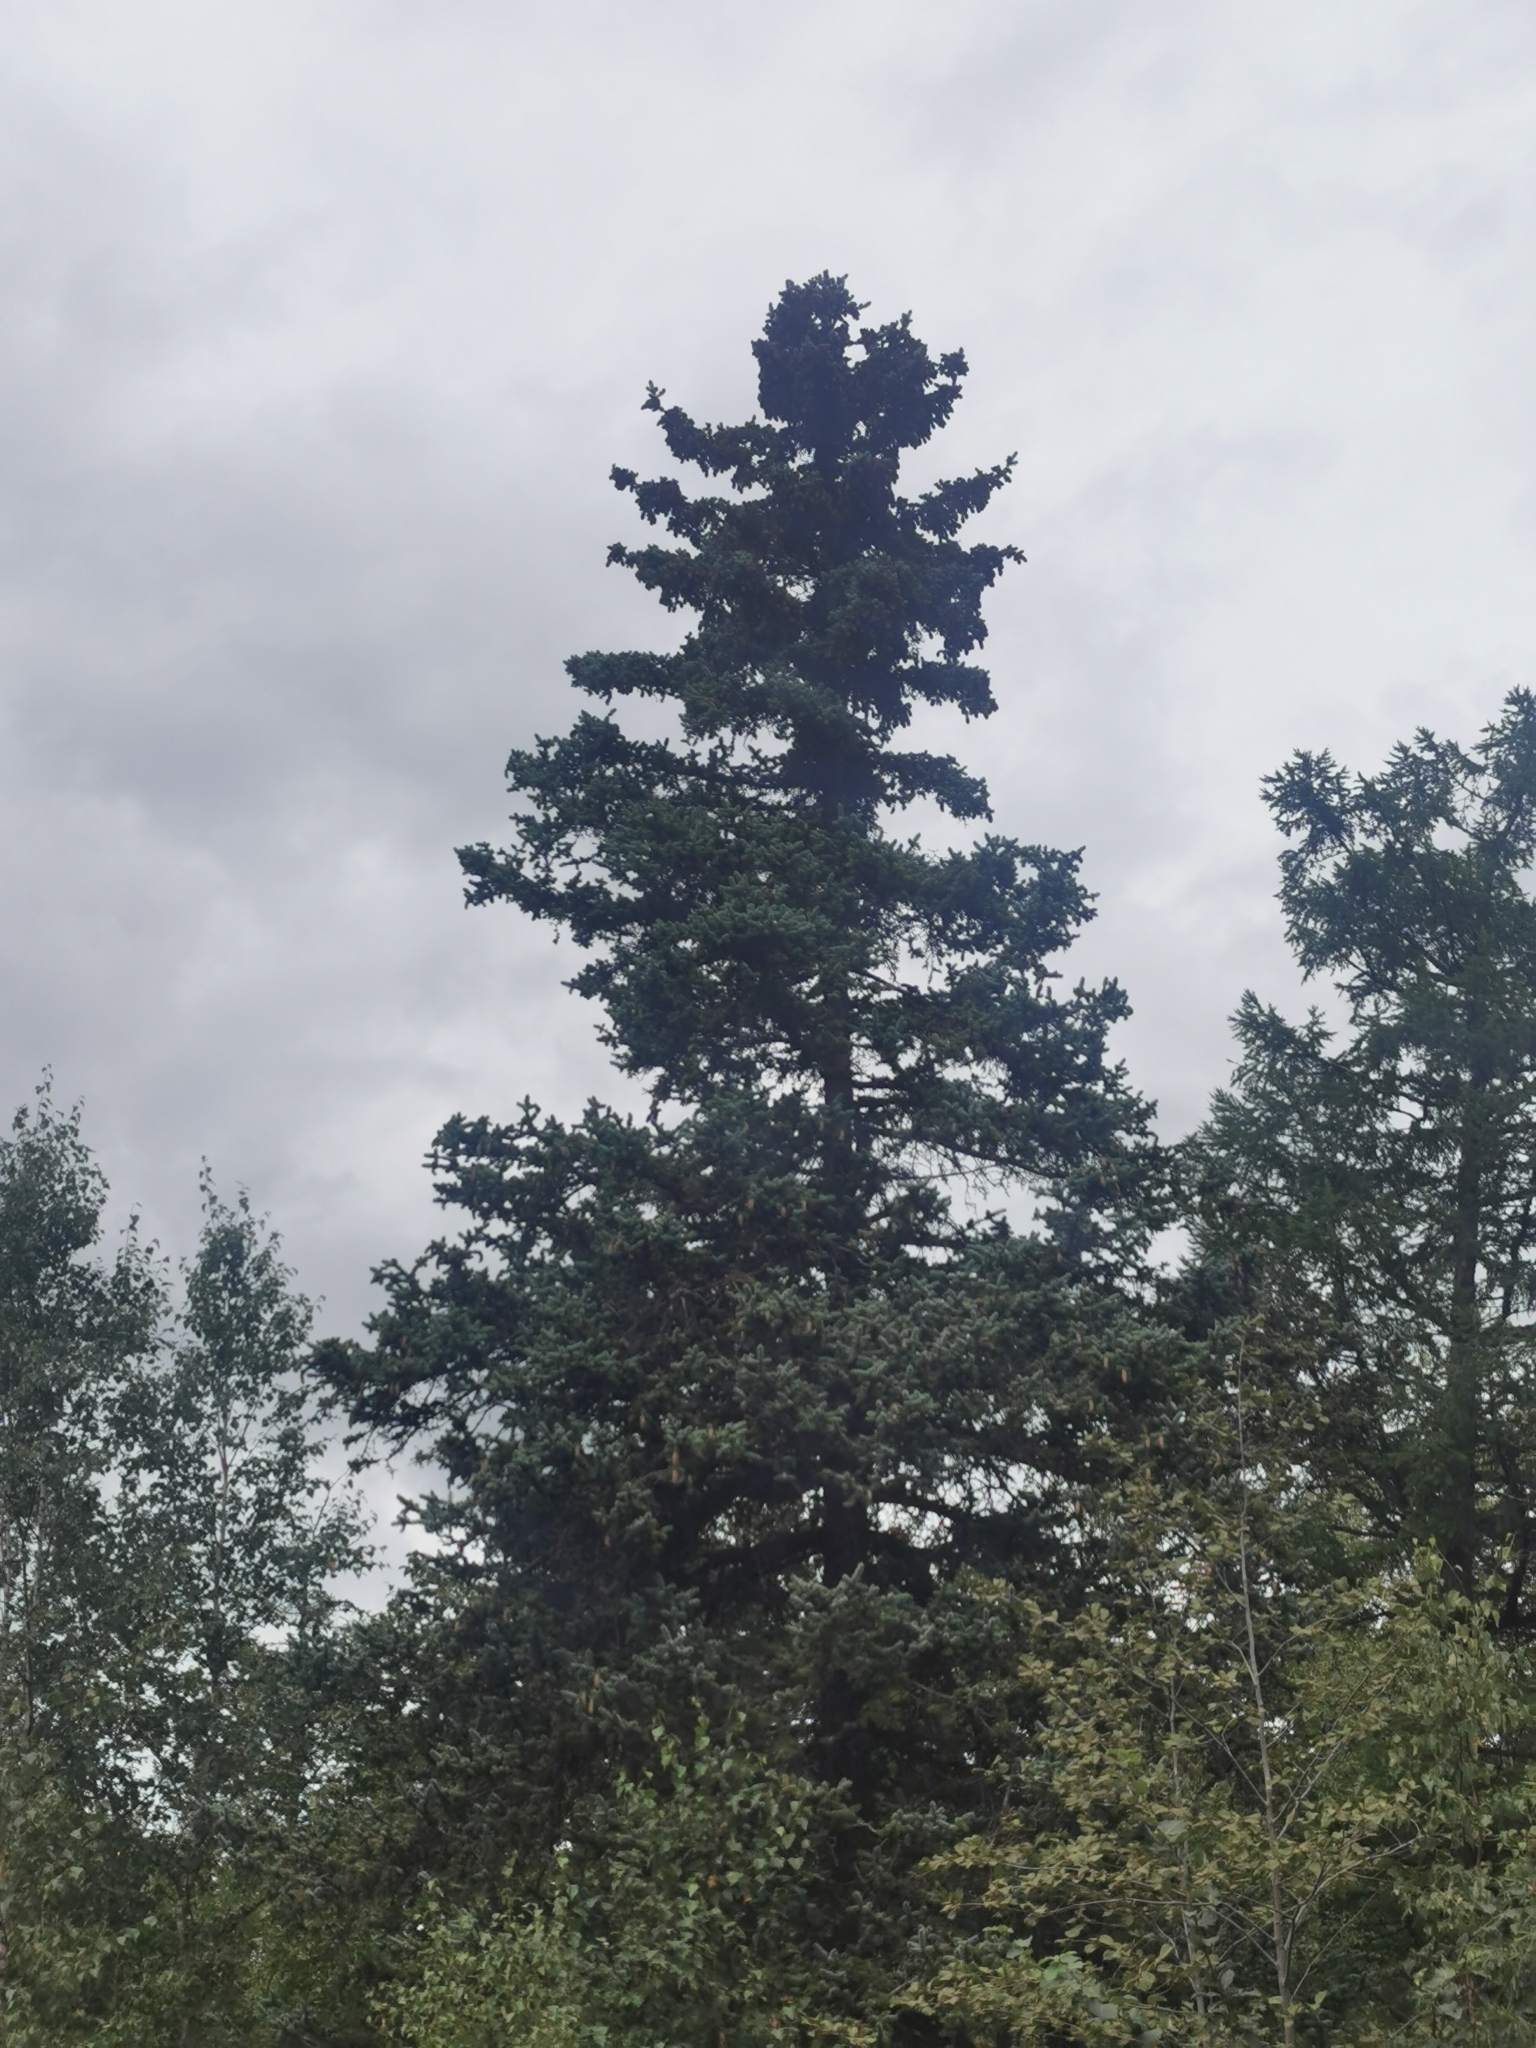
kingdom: Plantae
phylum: Tracheophyta
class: Pinopsida
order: Pinales
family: Pinaceae
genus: Picea
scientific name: Picea jezoensis
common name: Yeddo spruce
